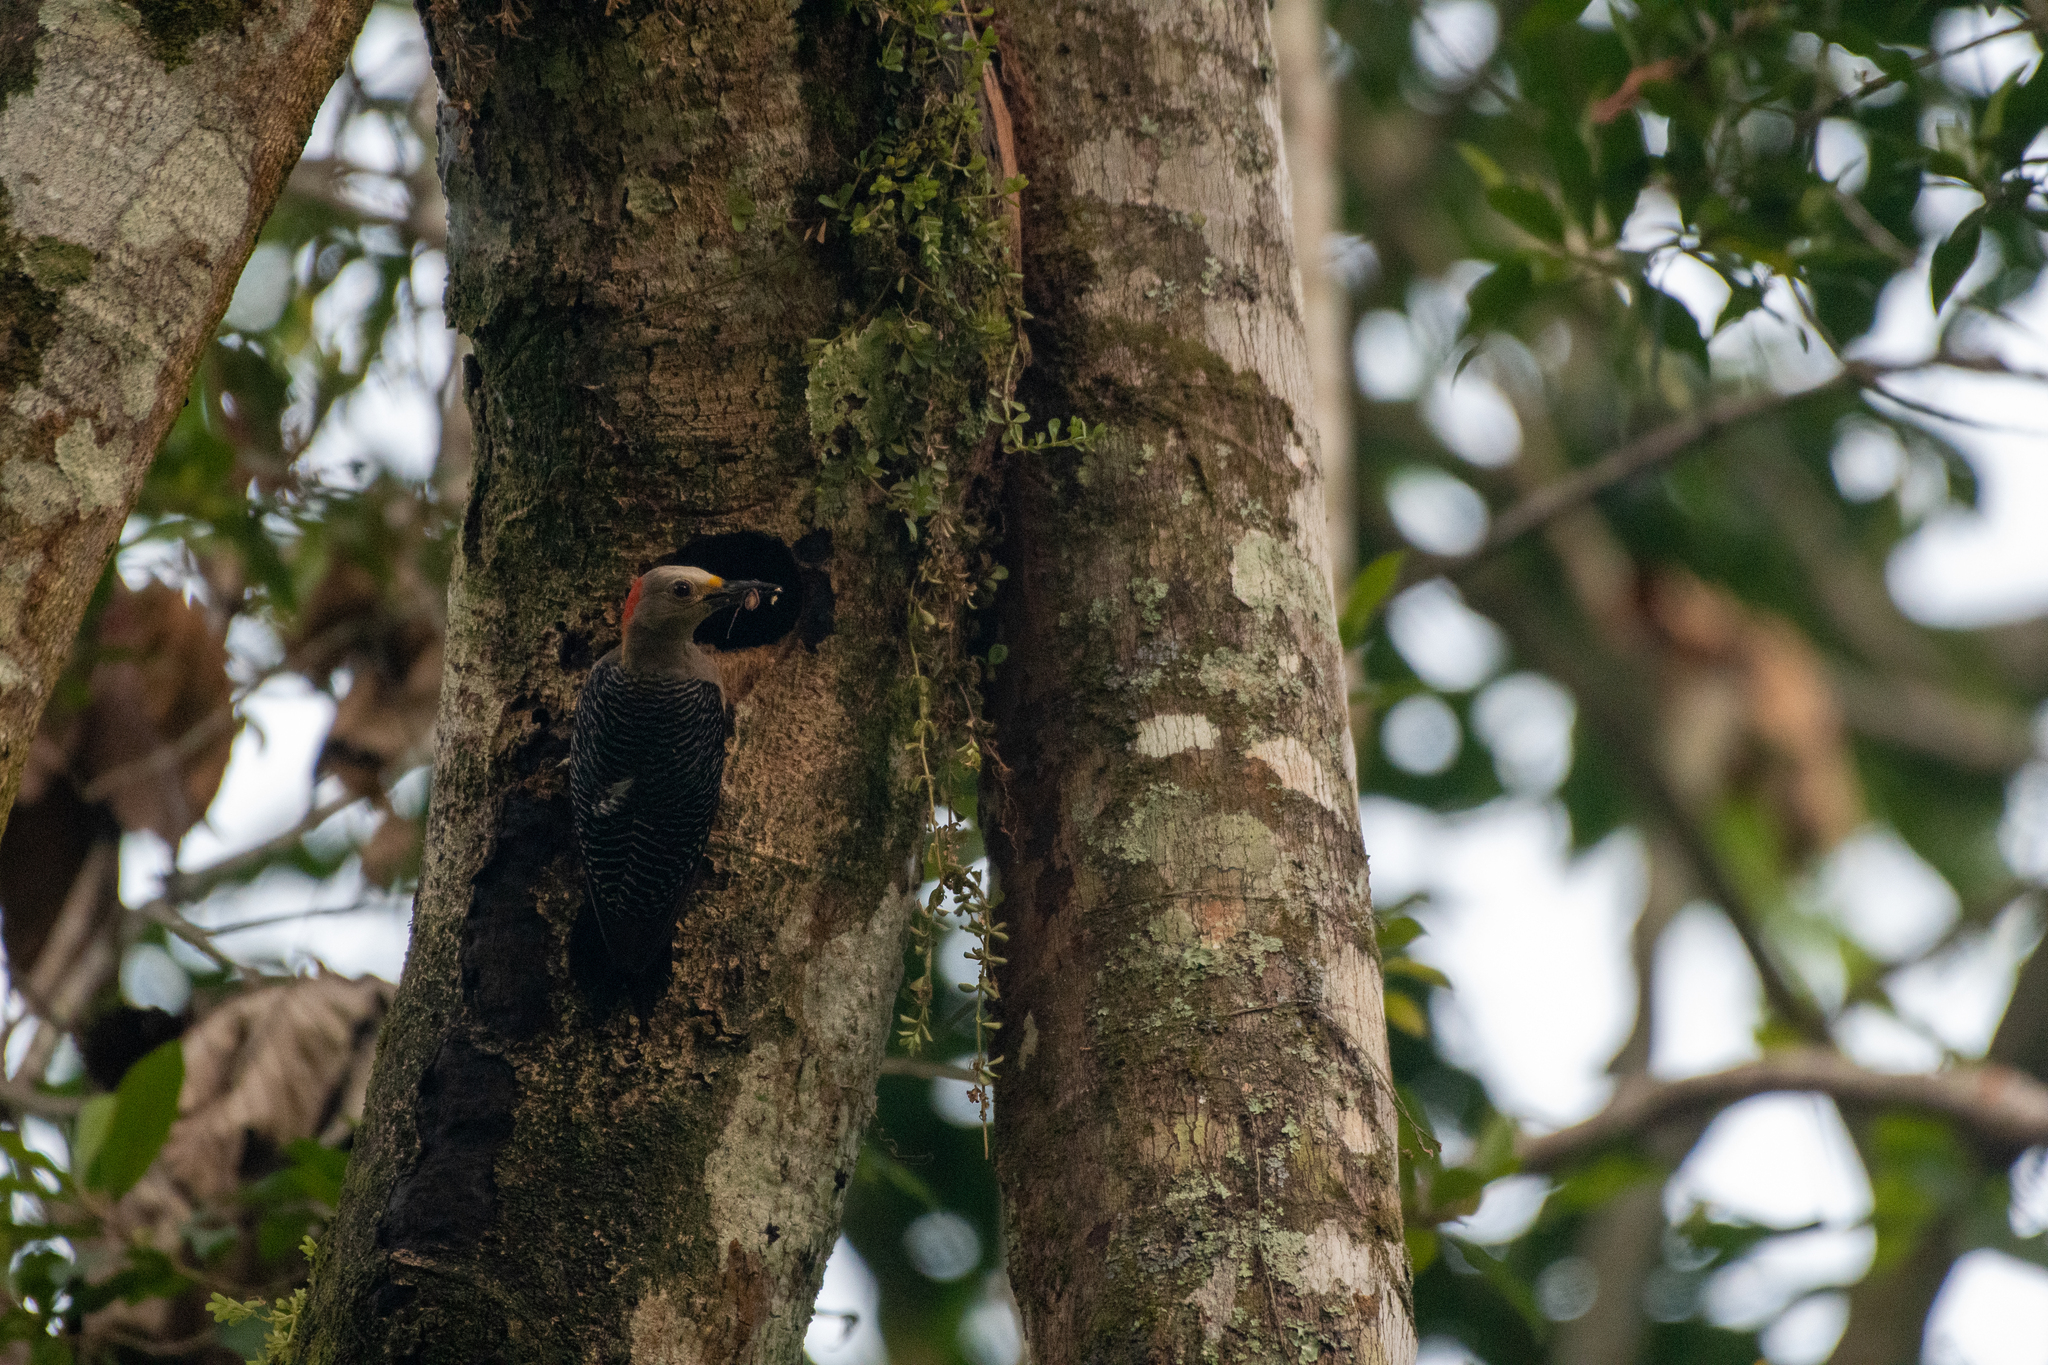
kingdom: Animalia
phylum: Chordata
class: Aves
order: Piciformes
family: Picidae
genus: Melanerpes
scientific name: Melanerpes aurifrons
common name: Golden-fronted woodpecker
